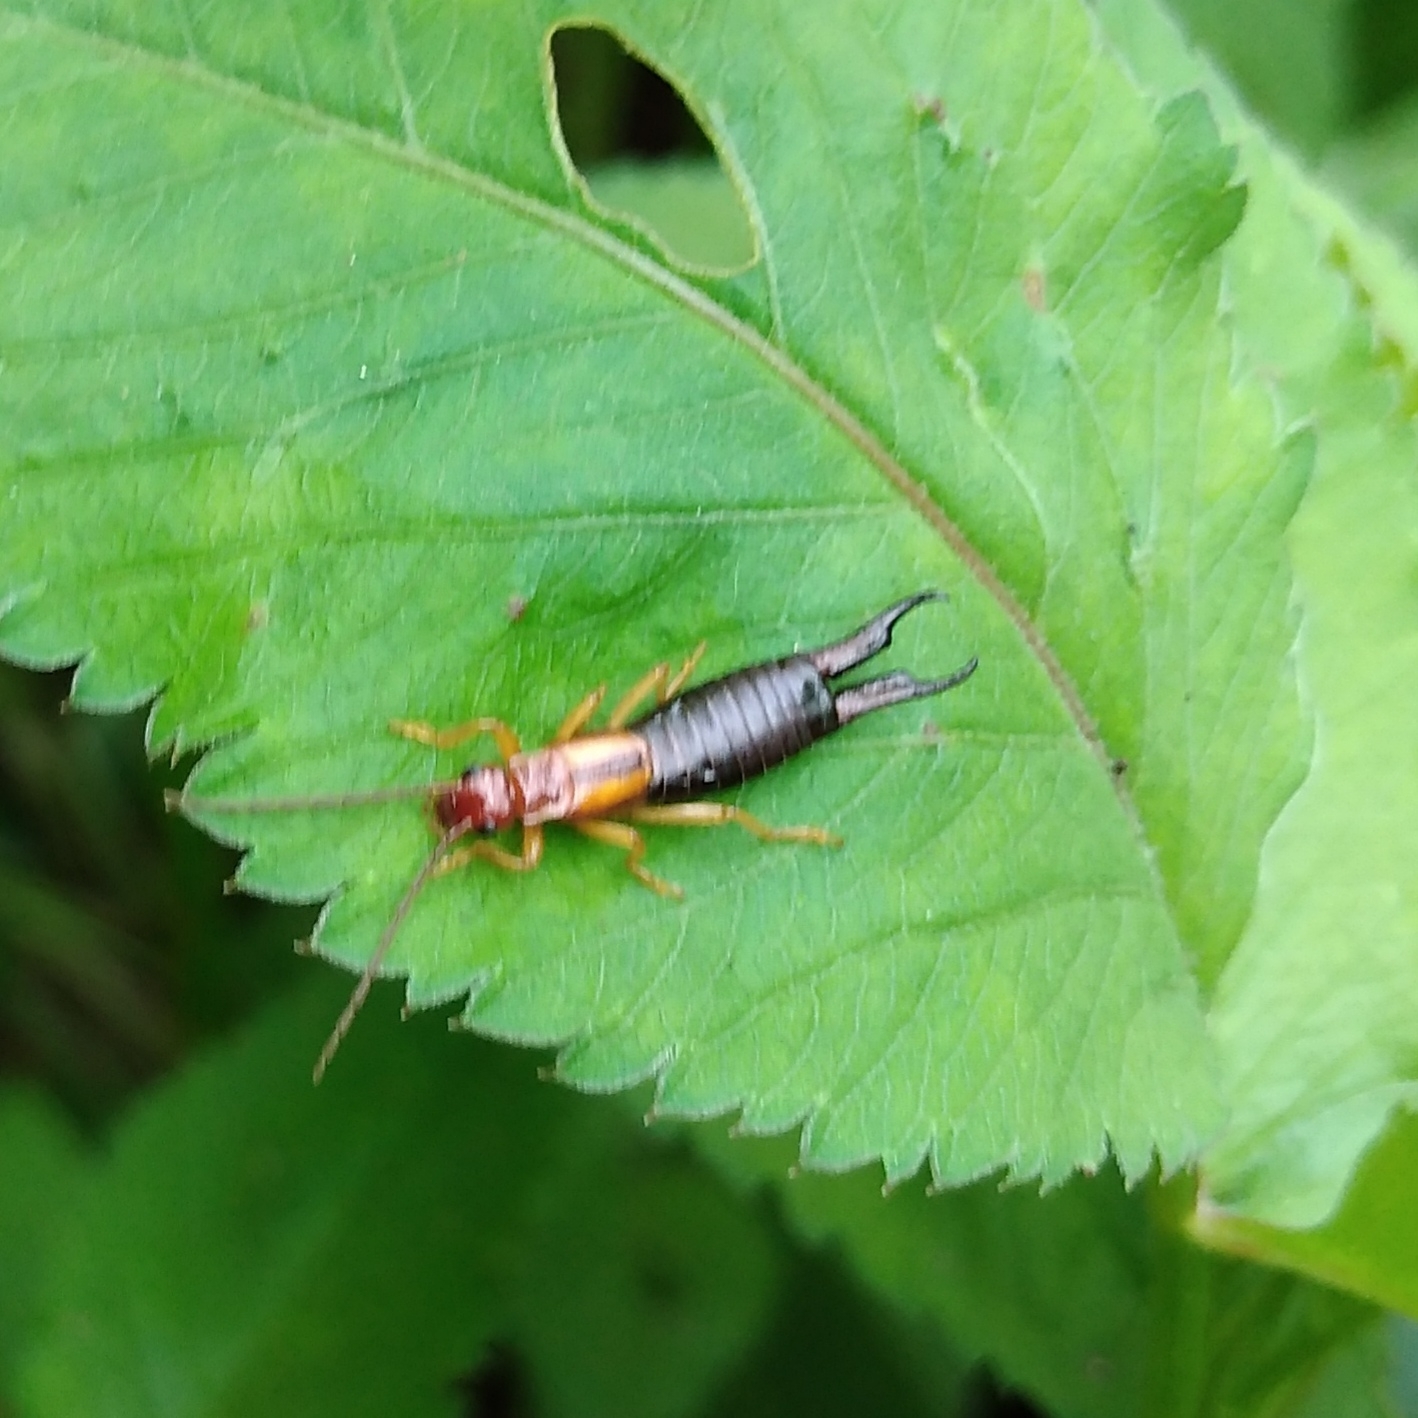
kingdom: Animalia
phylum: Arthropoda
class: Insecta
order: Dermaptera
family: Forficulidae
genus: Forficula
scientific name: Forficula senegalensis
